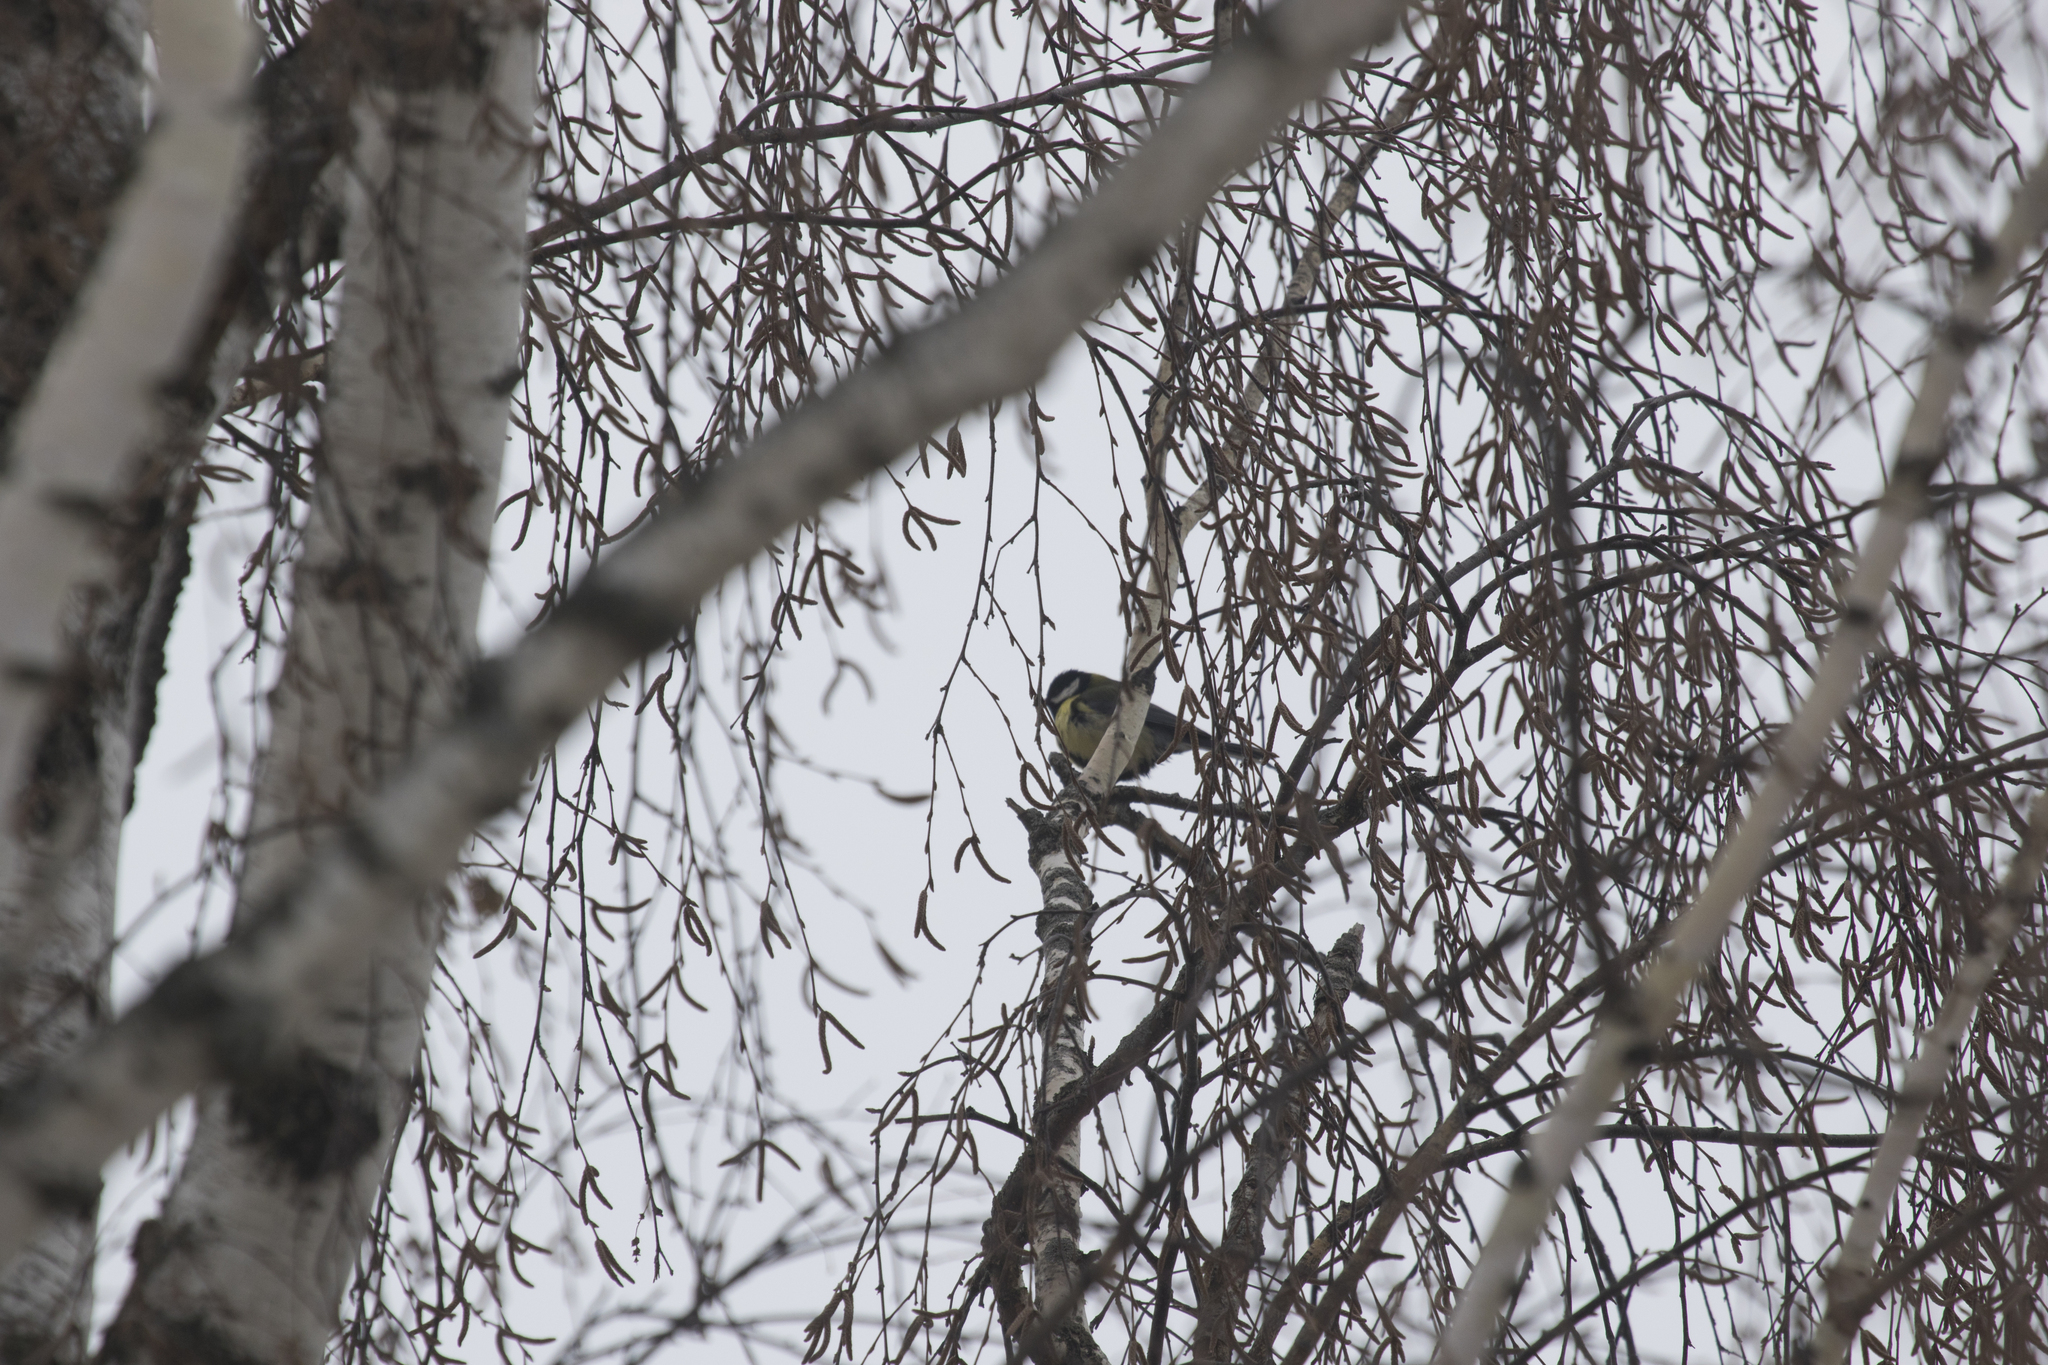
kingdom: Animalia
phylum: Chordata
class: Aves
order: Passeriformes
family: Paridae
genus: Parus
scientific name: Parus major
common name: Great tit
